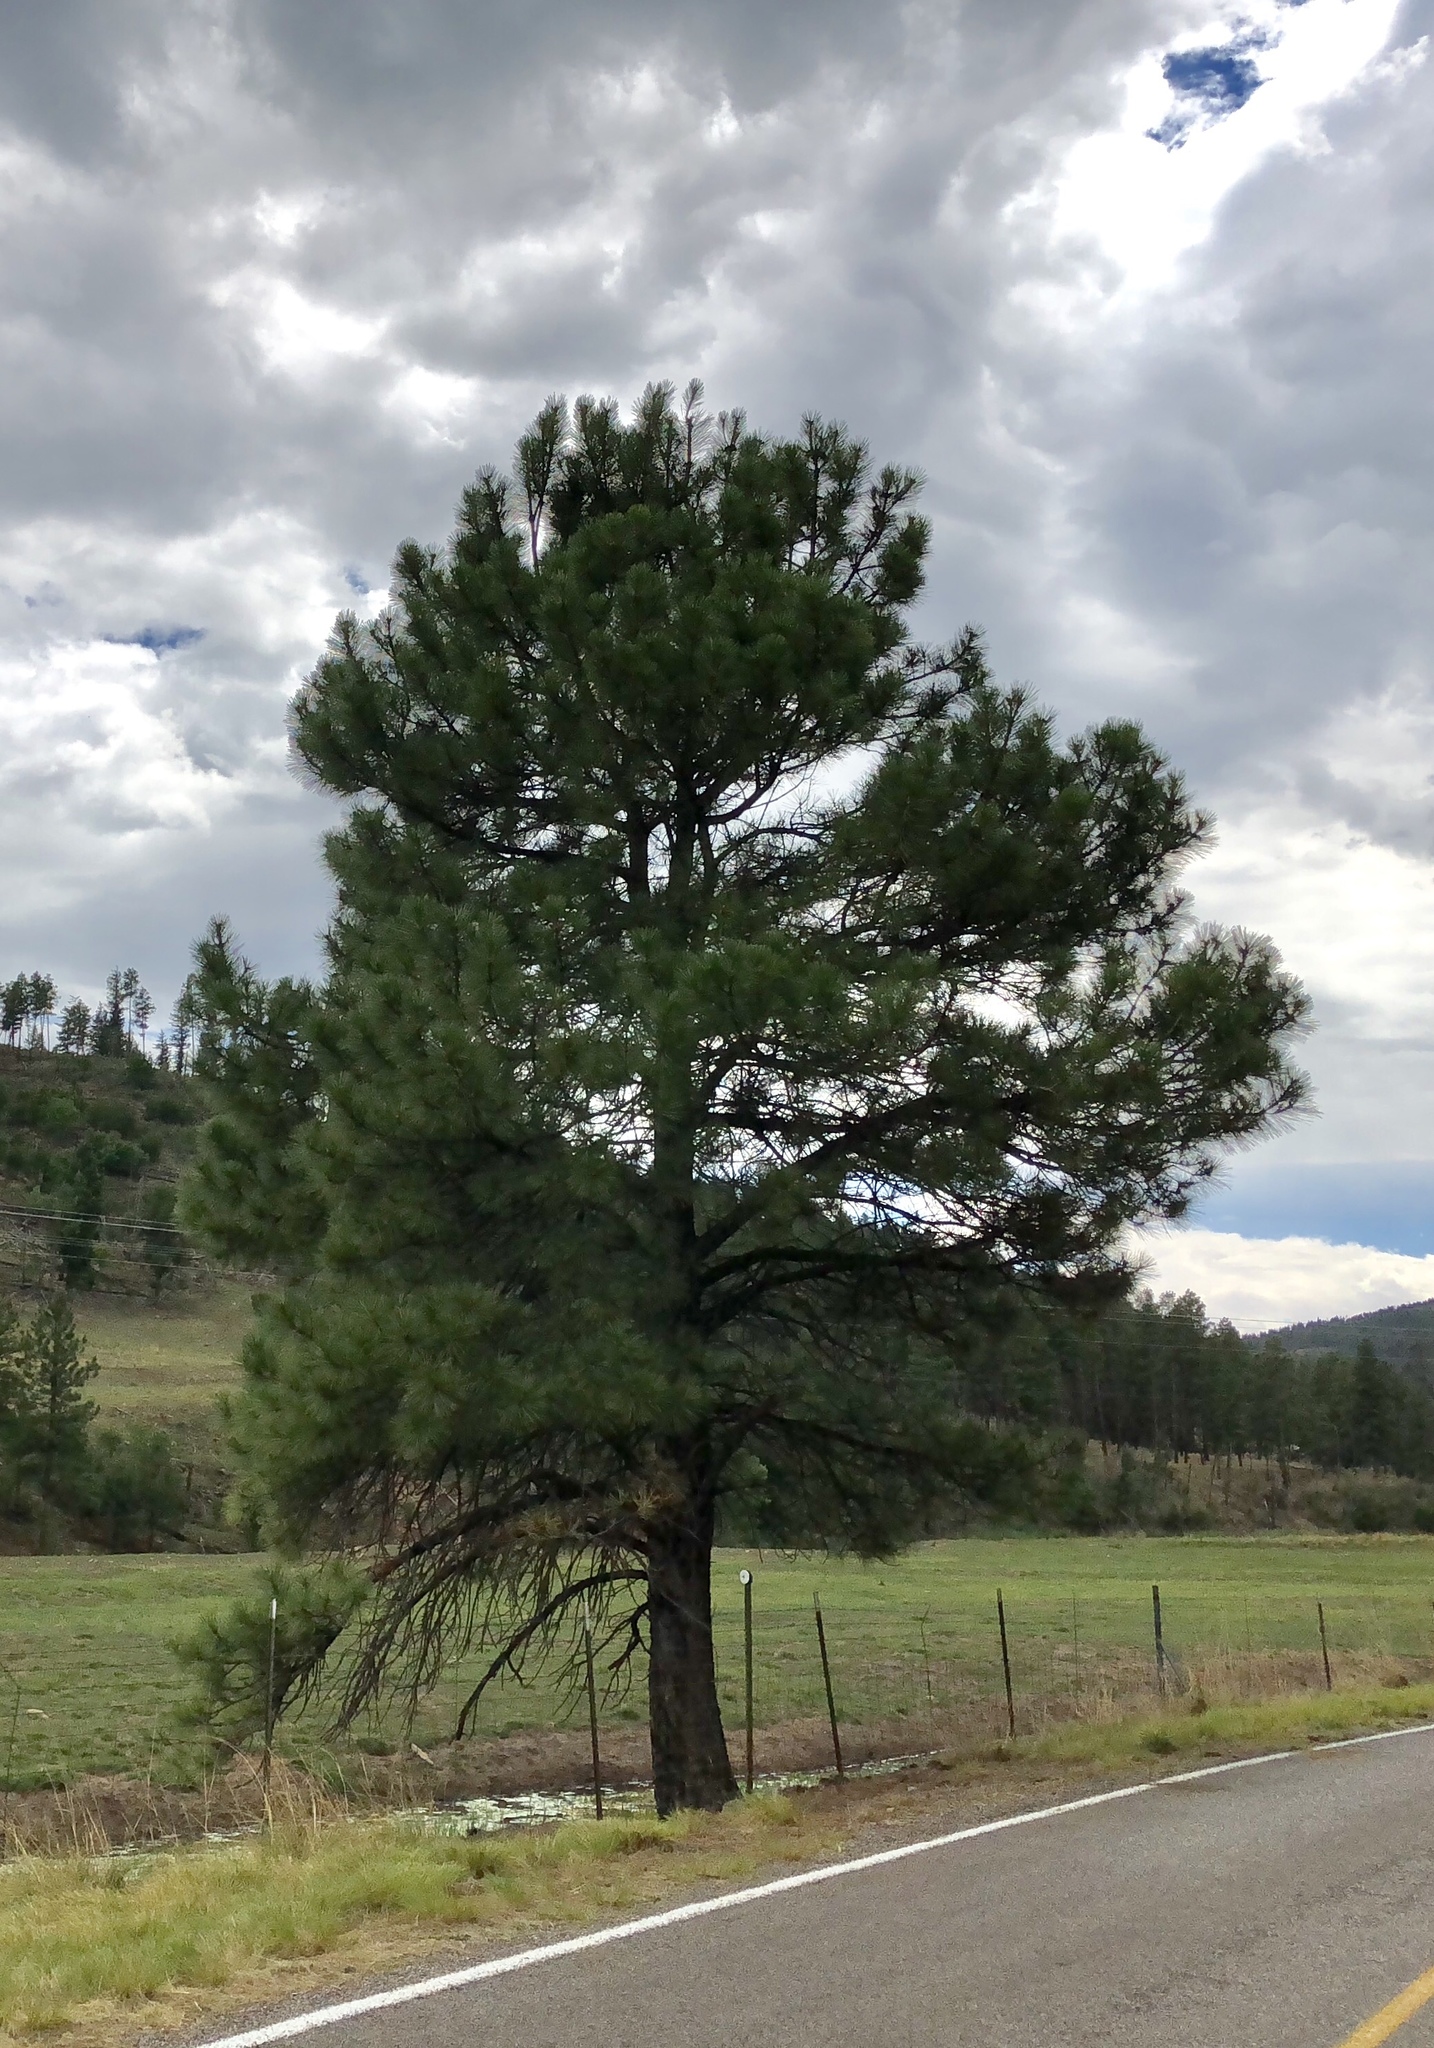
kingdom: Plantae
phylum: Tracheophyta
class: Pinopsida
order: Pinales
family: Pinaceae
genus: Pinus
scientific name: Pinus ponderosa
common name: Western yellow-pine
